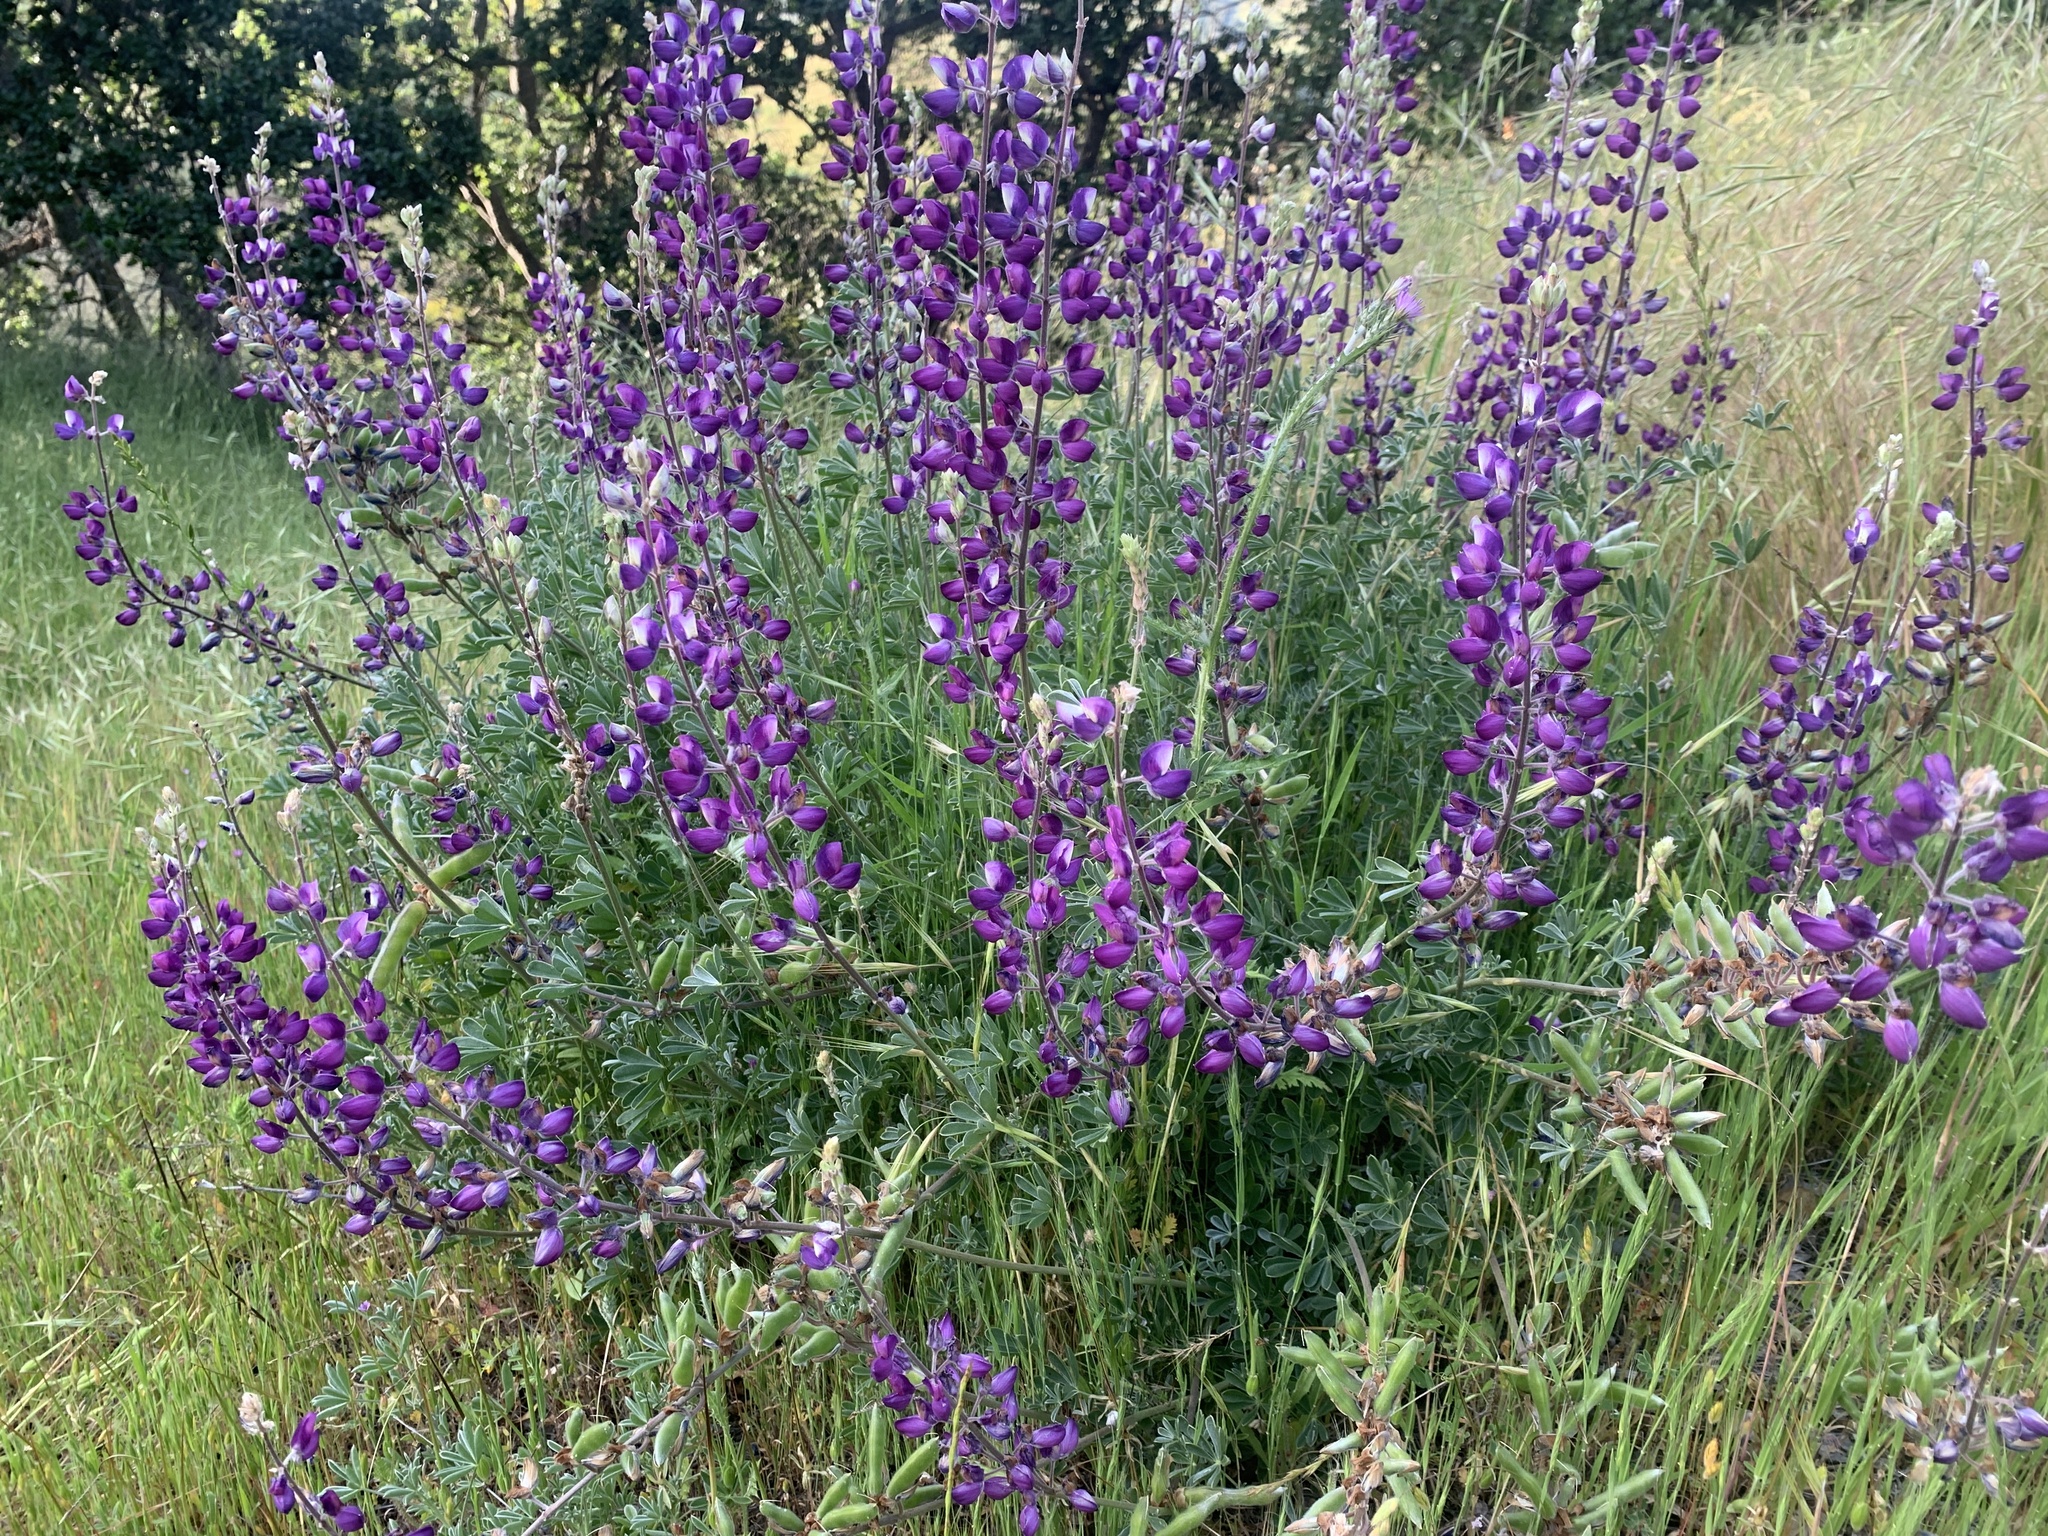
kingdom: Plantae
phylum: Tracheophyta
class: Magnoliopsida
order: Fabales
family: Fabaceae
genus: Lupinus
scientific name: Lupinus albifrons
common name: Foothill lupine
